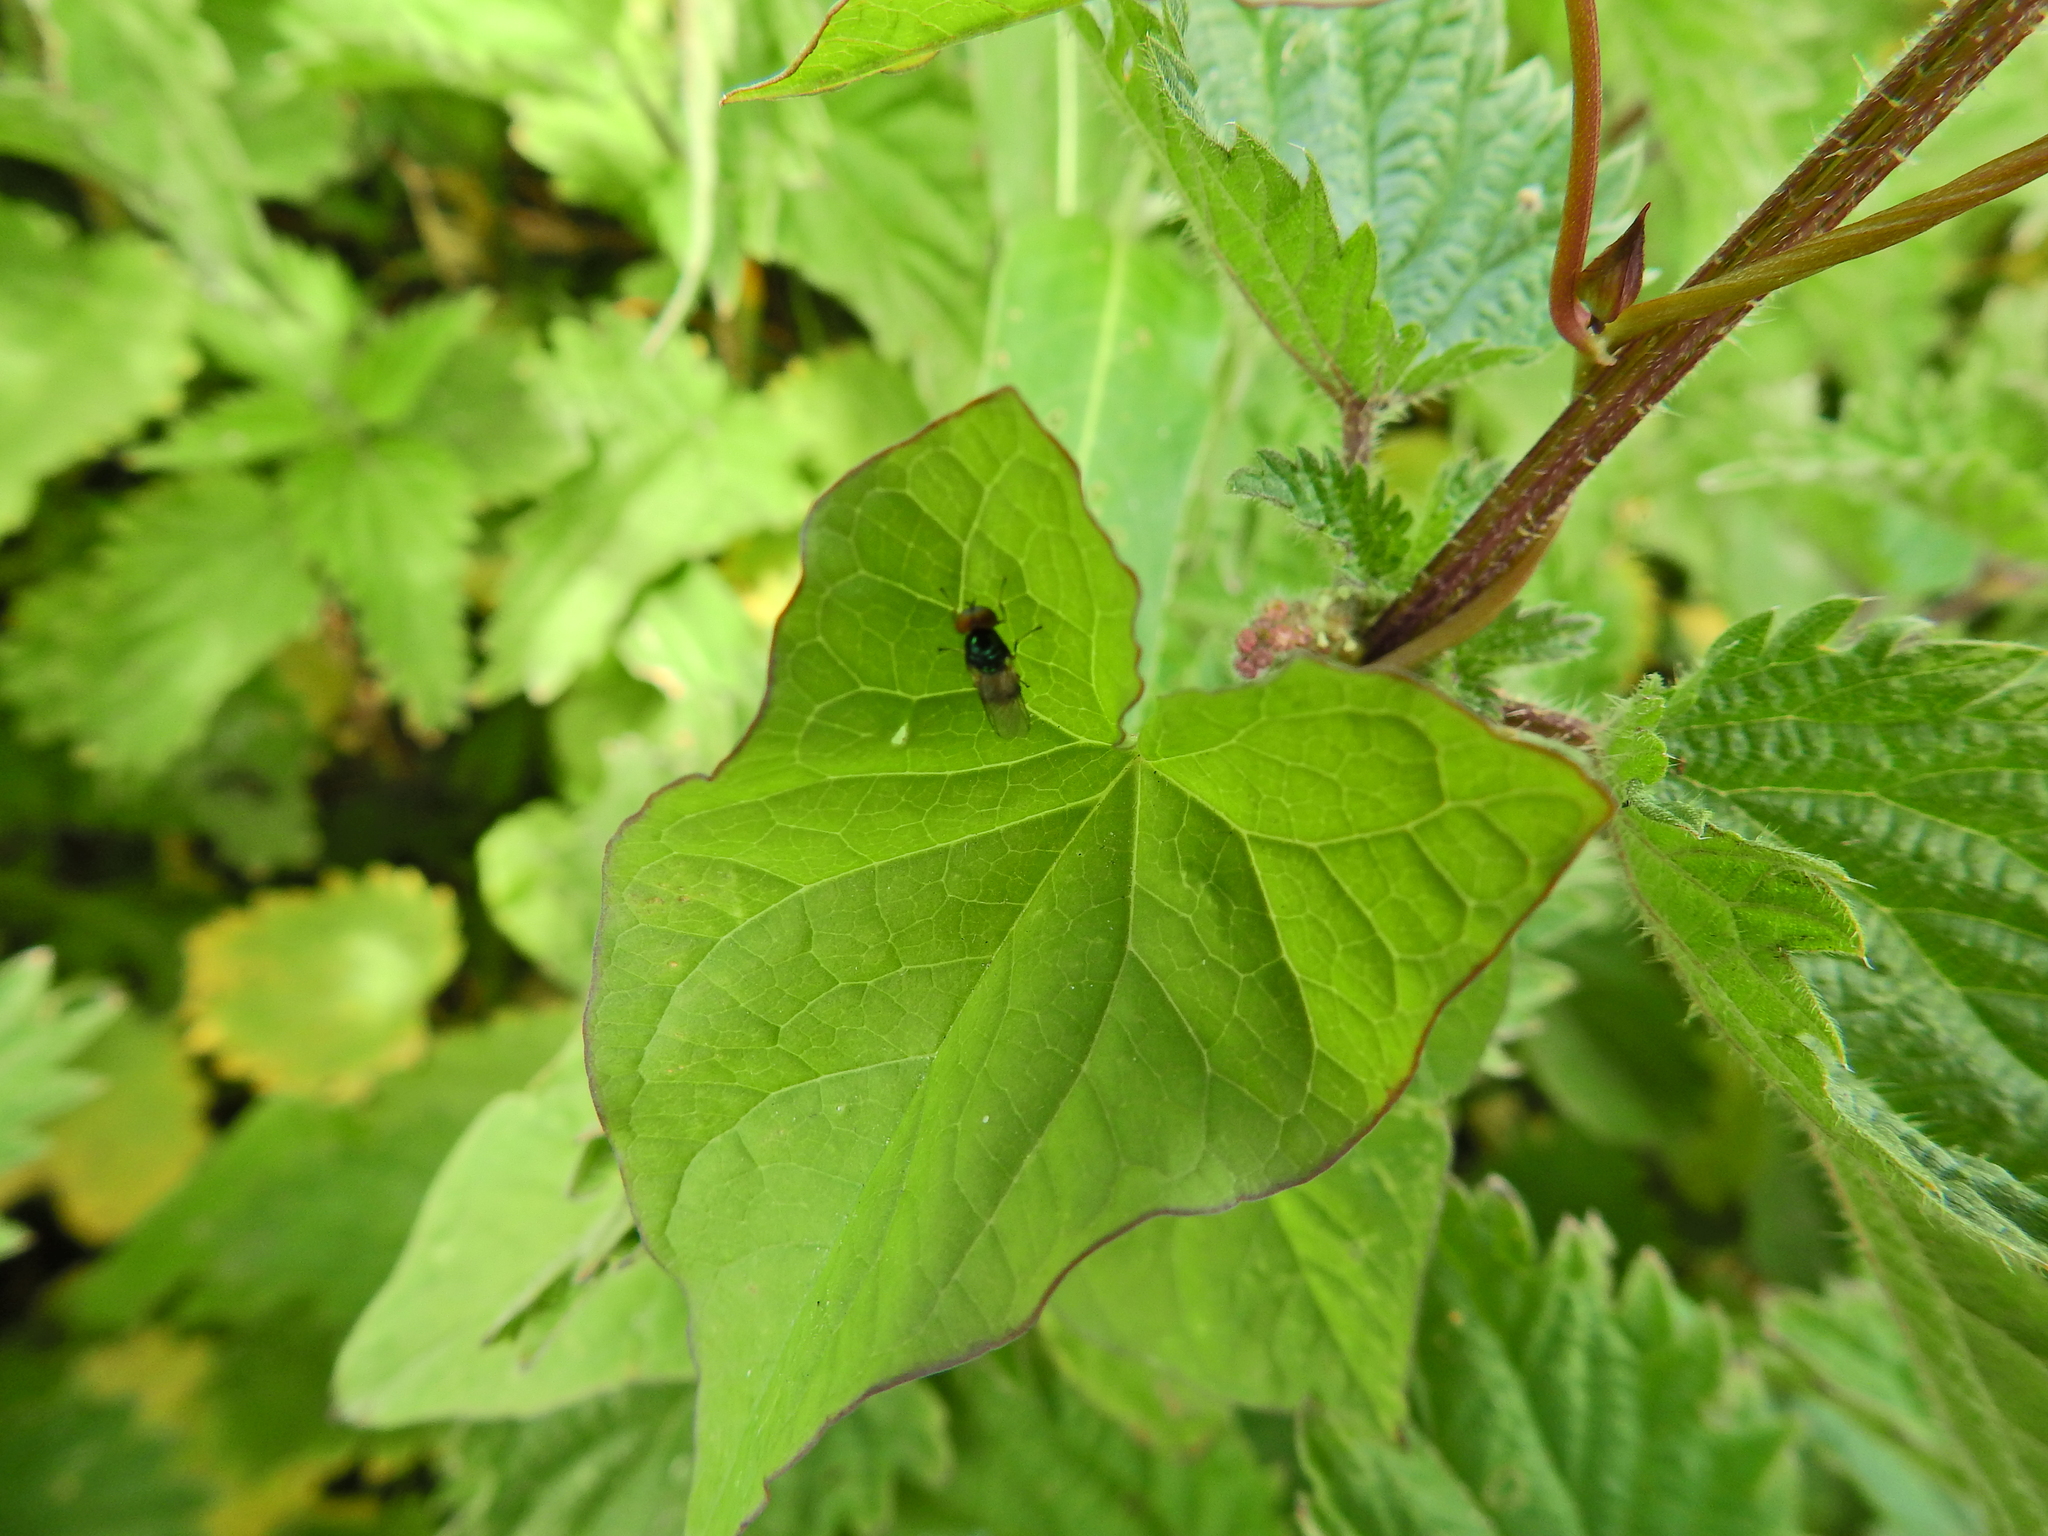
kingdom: Animalia
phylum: Arthropoda
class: Insecta
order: Diptera
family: Stratiomyidae
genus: Microchrysa
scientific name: Microchrysa polita
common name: Black-horned gem
